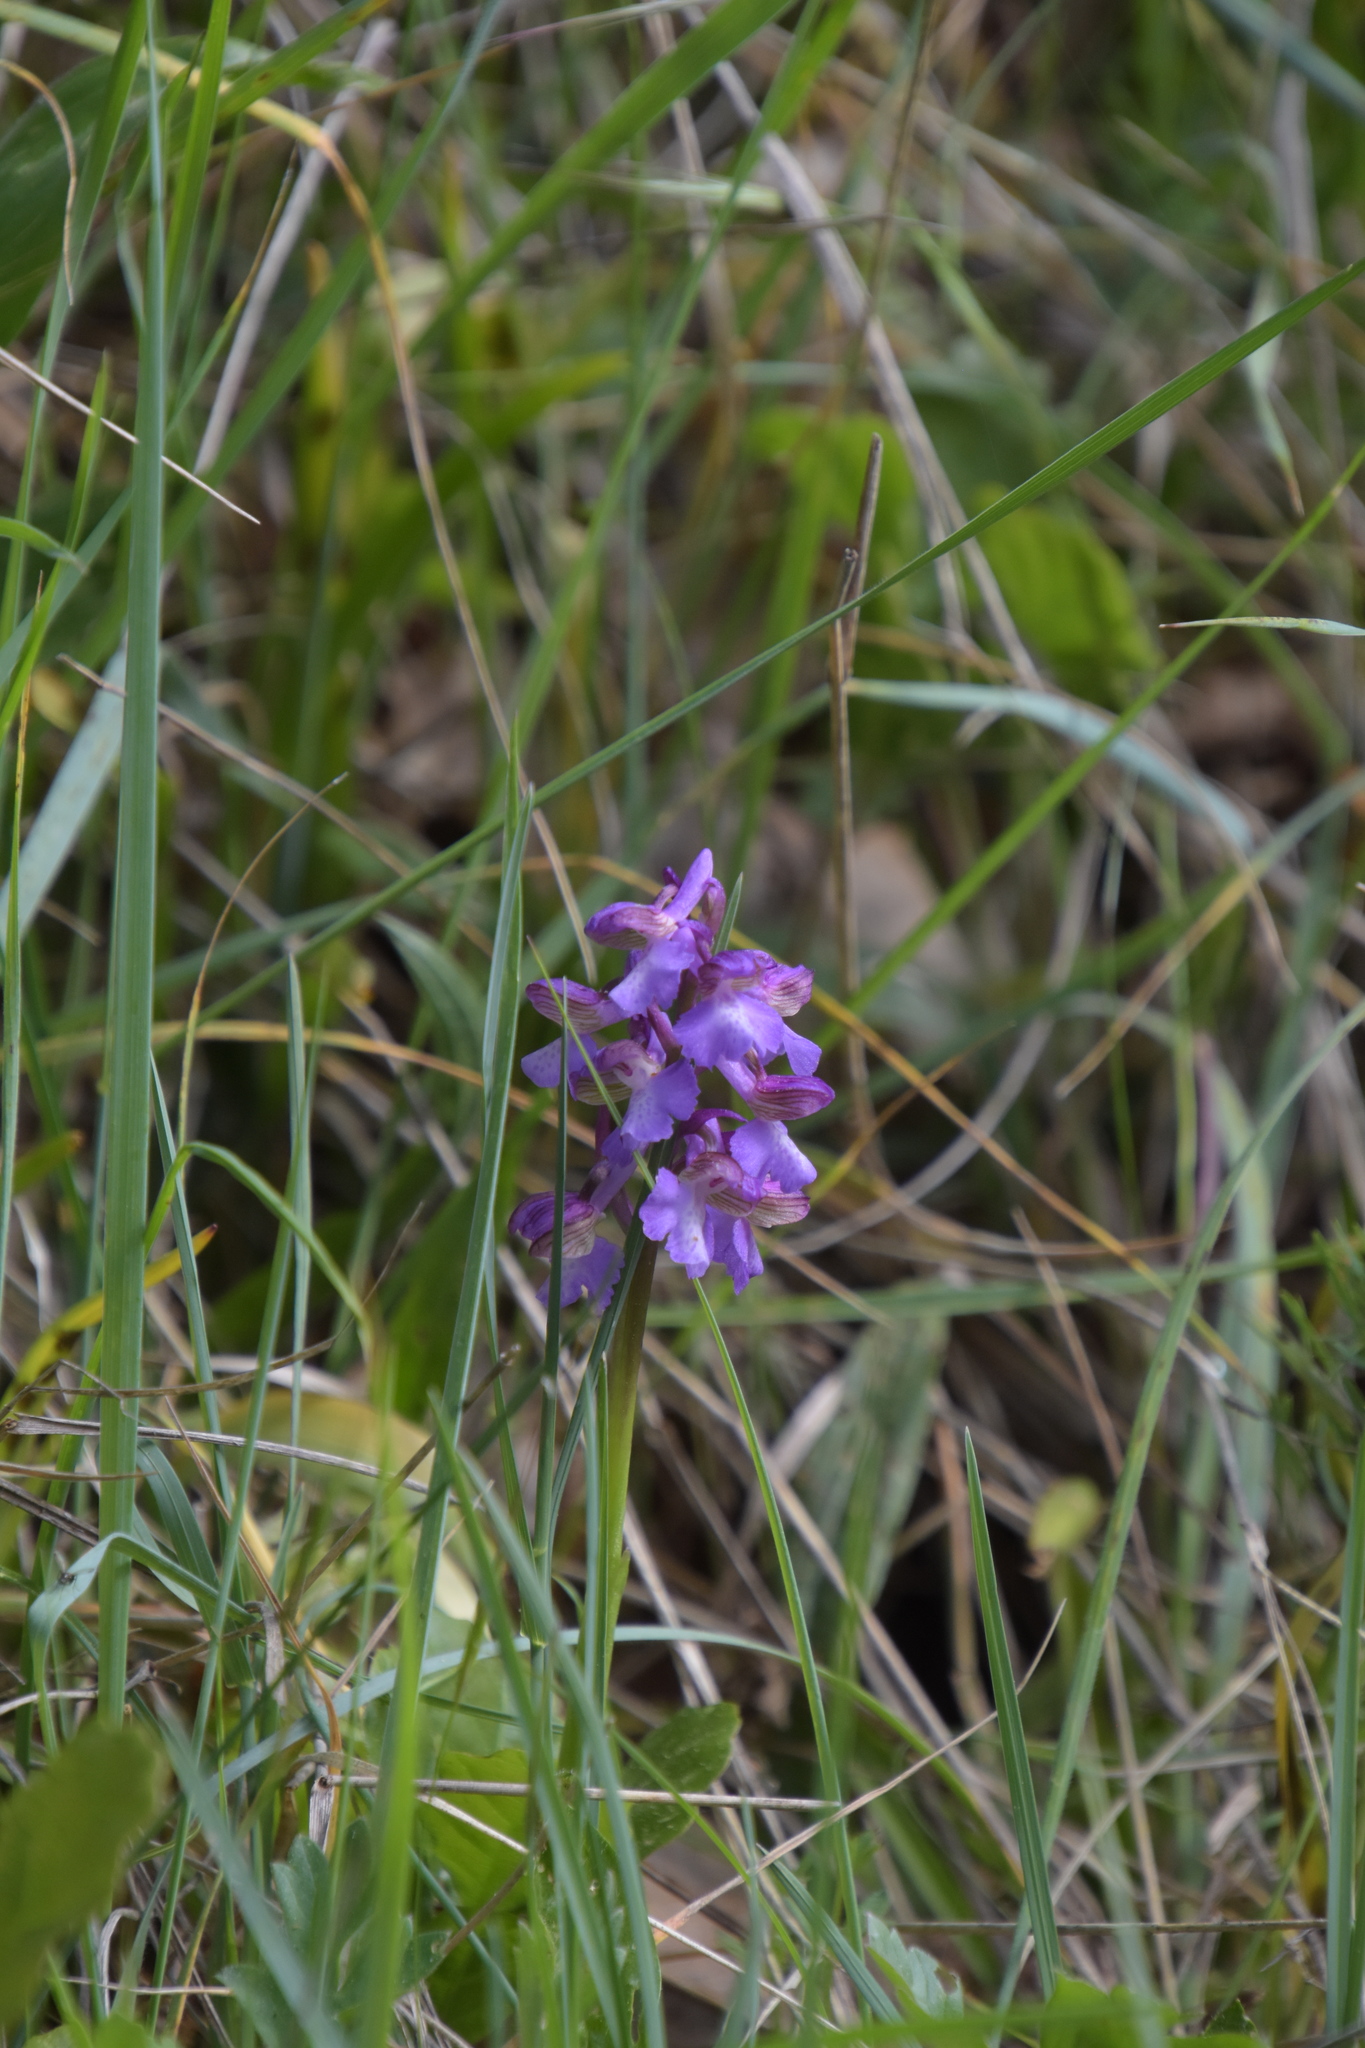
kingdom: Plantae
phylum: Tracheophyta
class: Liliopsida
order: Asparagales
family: Orchidaceae
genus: Anacamptis
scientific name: Anacamptis morio
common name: Green-winged orchid
